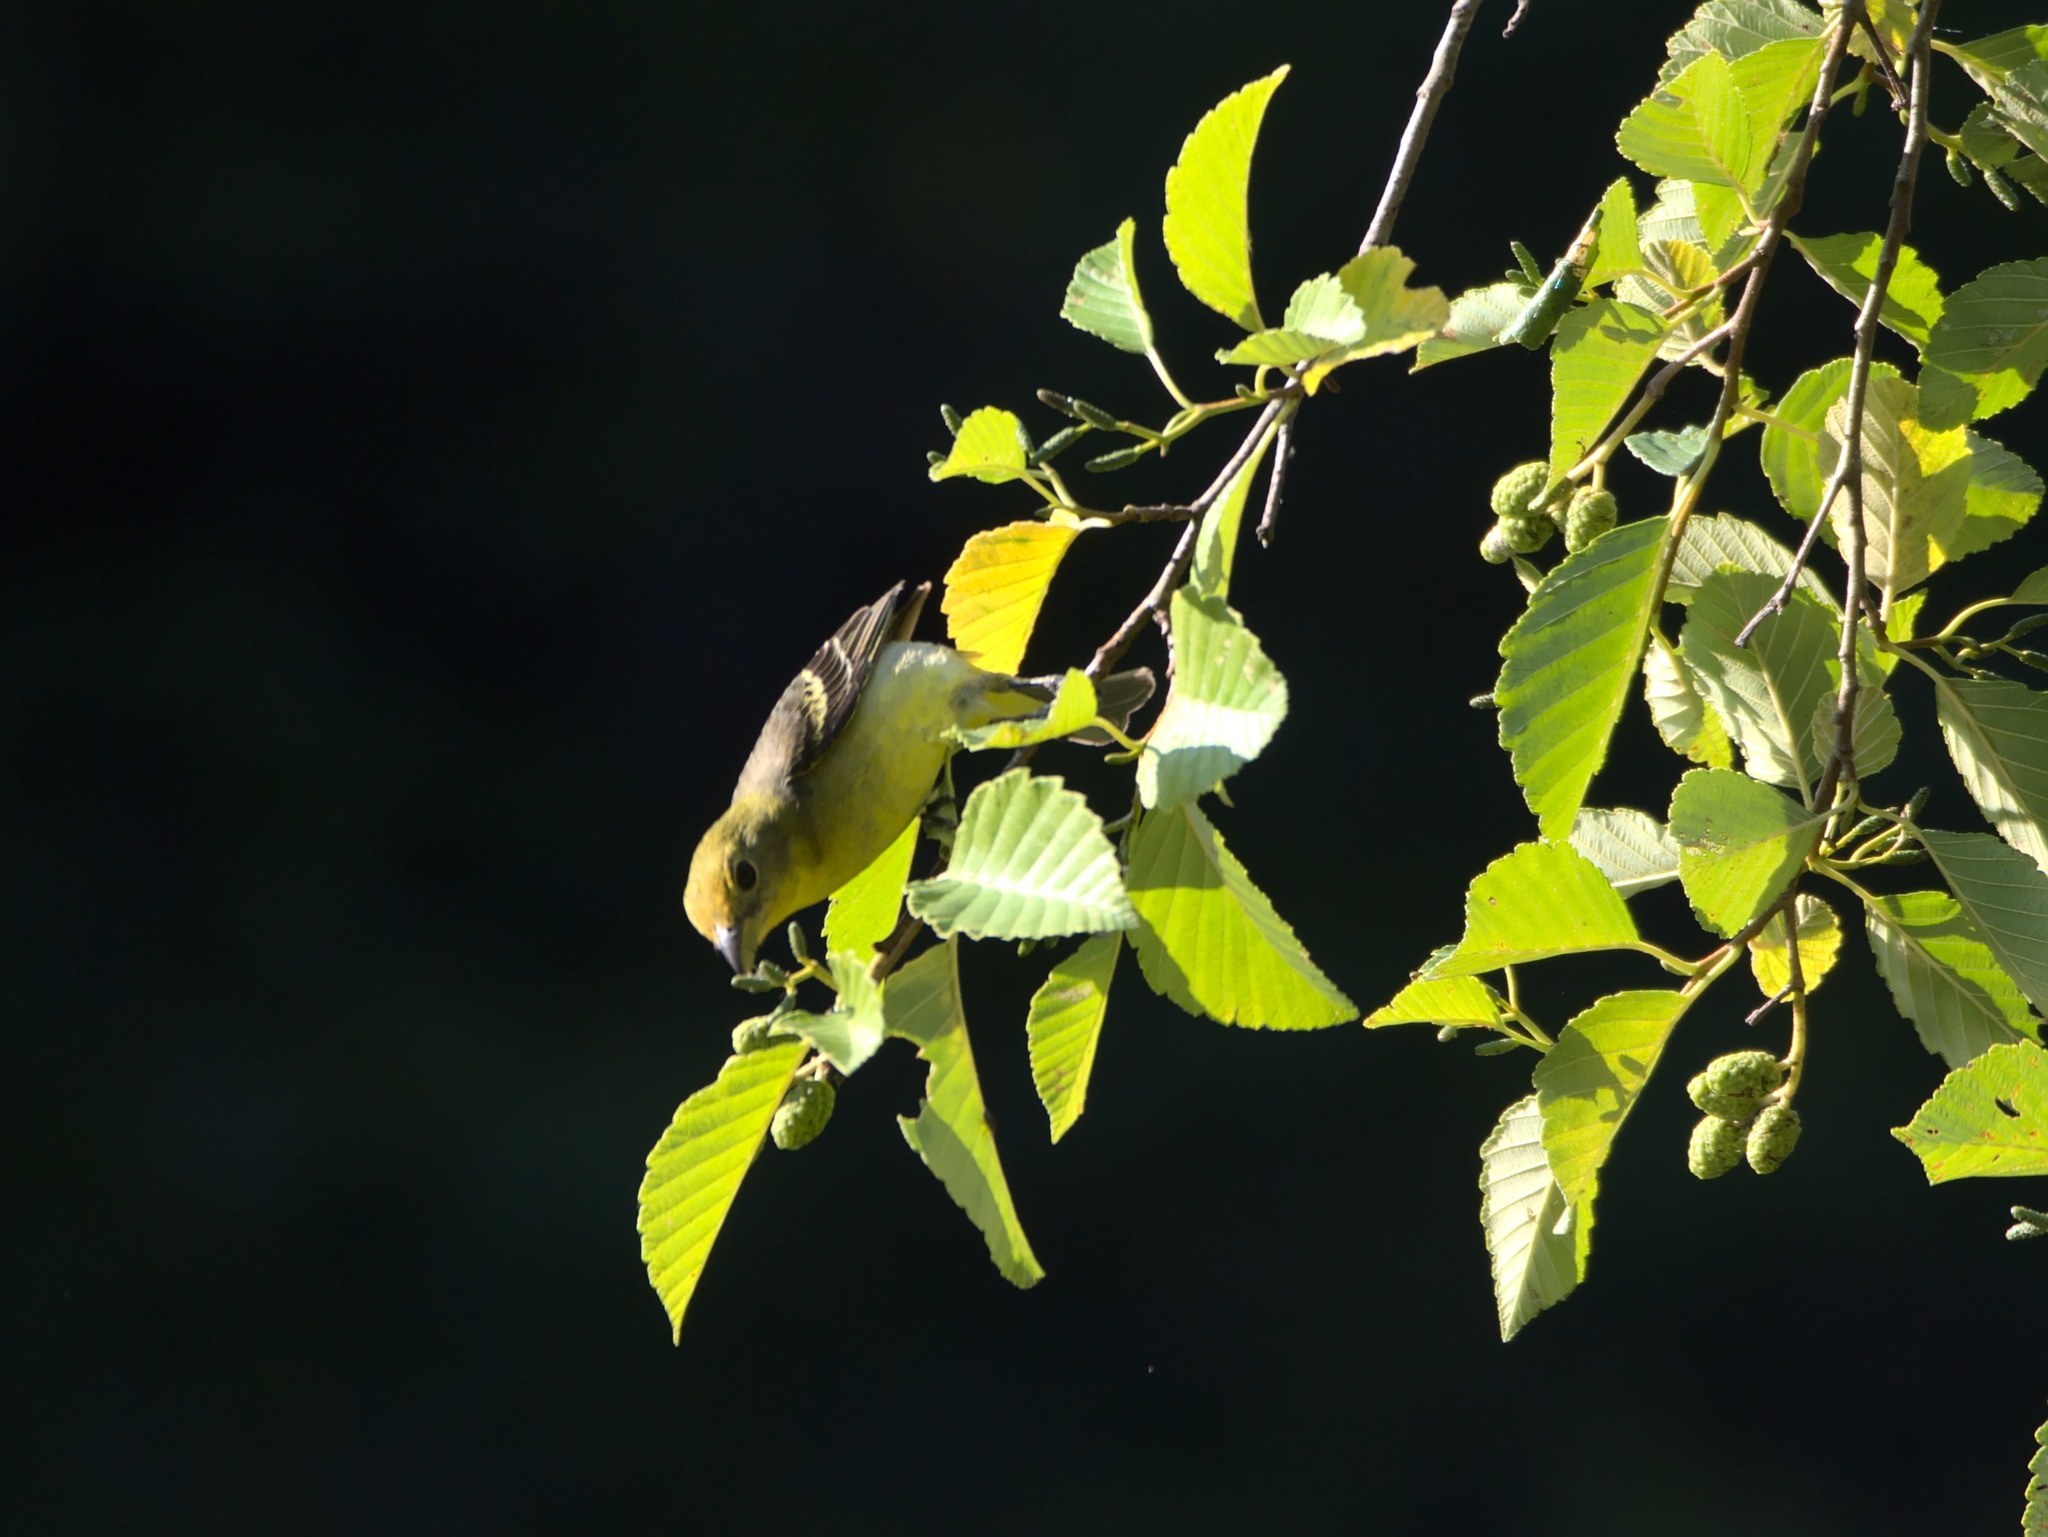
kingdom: Animalia
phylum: Chordata
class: Aves
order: Passeriformes
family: Cardinalidae
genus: Piranga
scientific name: Piranga ludoviciana
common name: Western tanager
